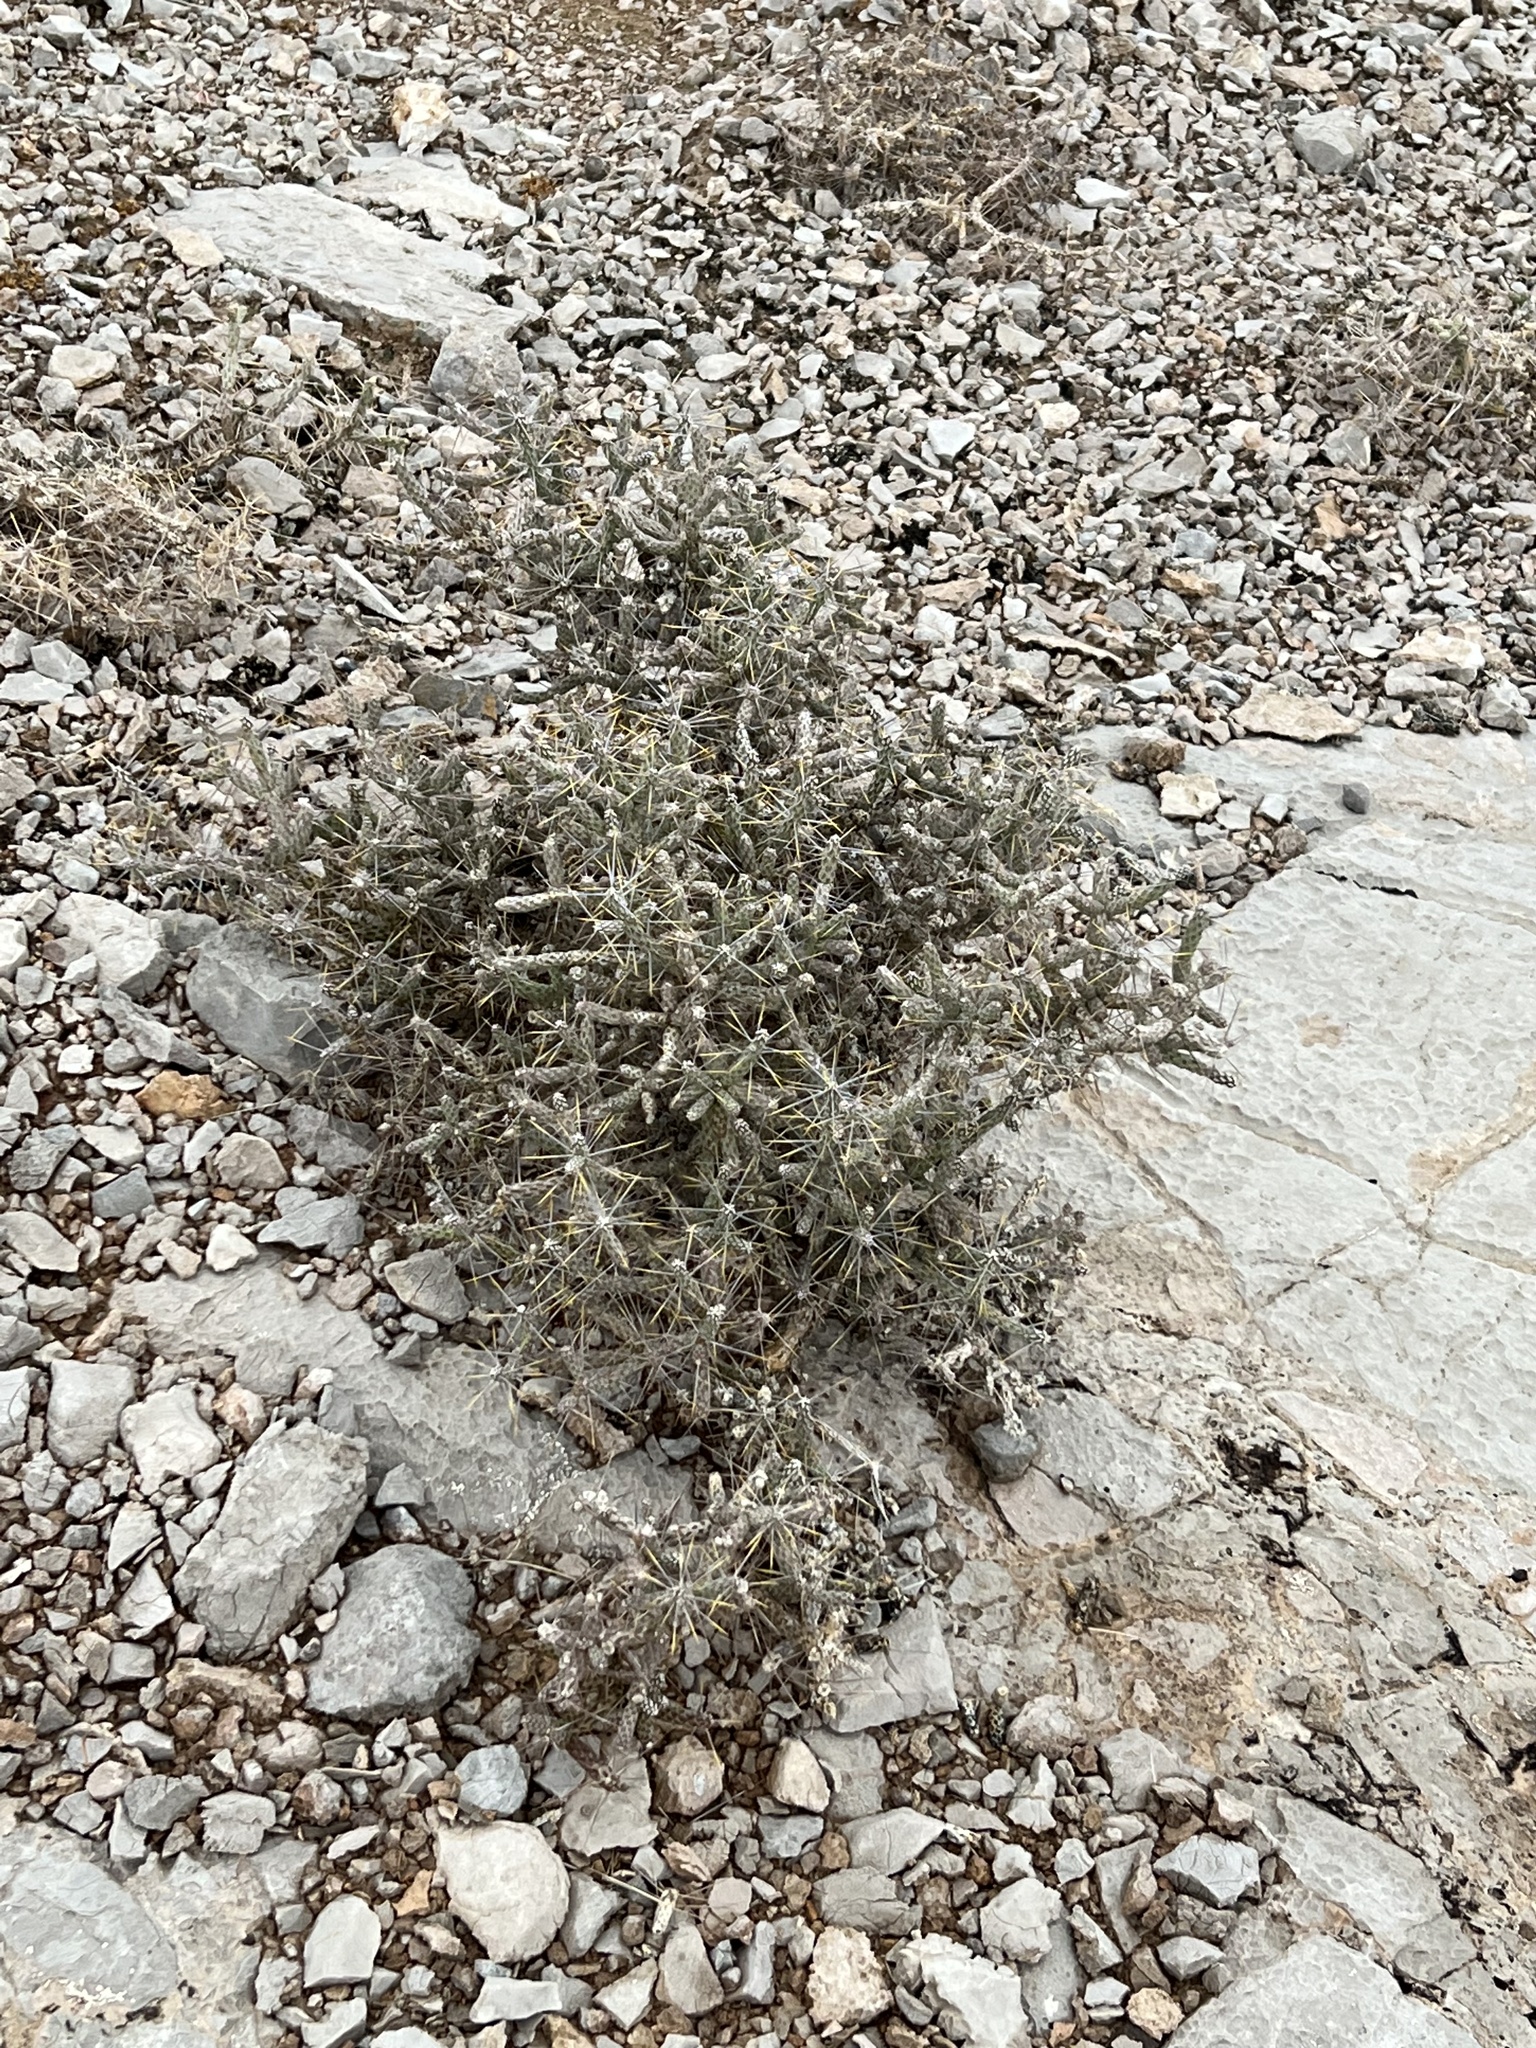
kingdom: Plantae
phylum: Tracheophyta
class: Magnoliopsida
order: Caryophyllales
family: Cactaceae
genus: Cylindropuntia
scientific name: Cylindropuntia ramosissima
